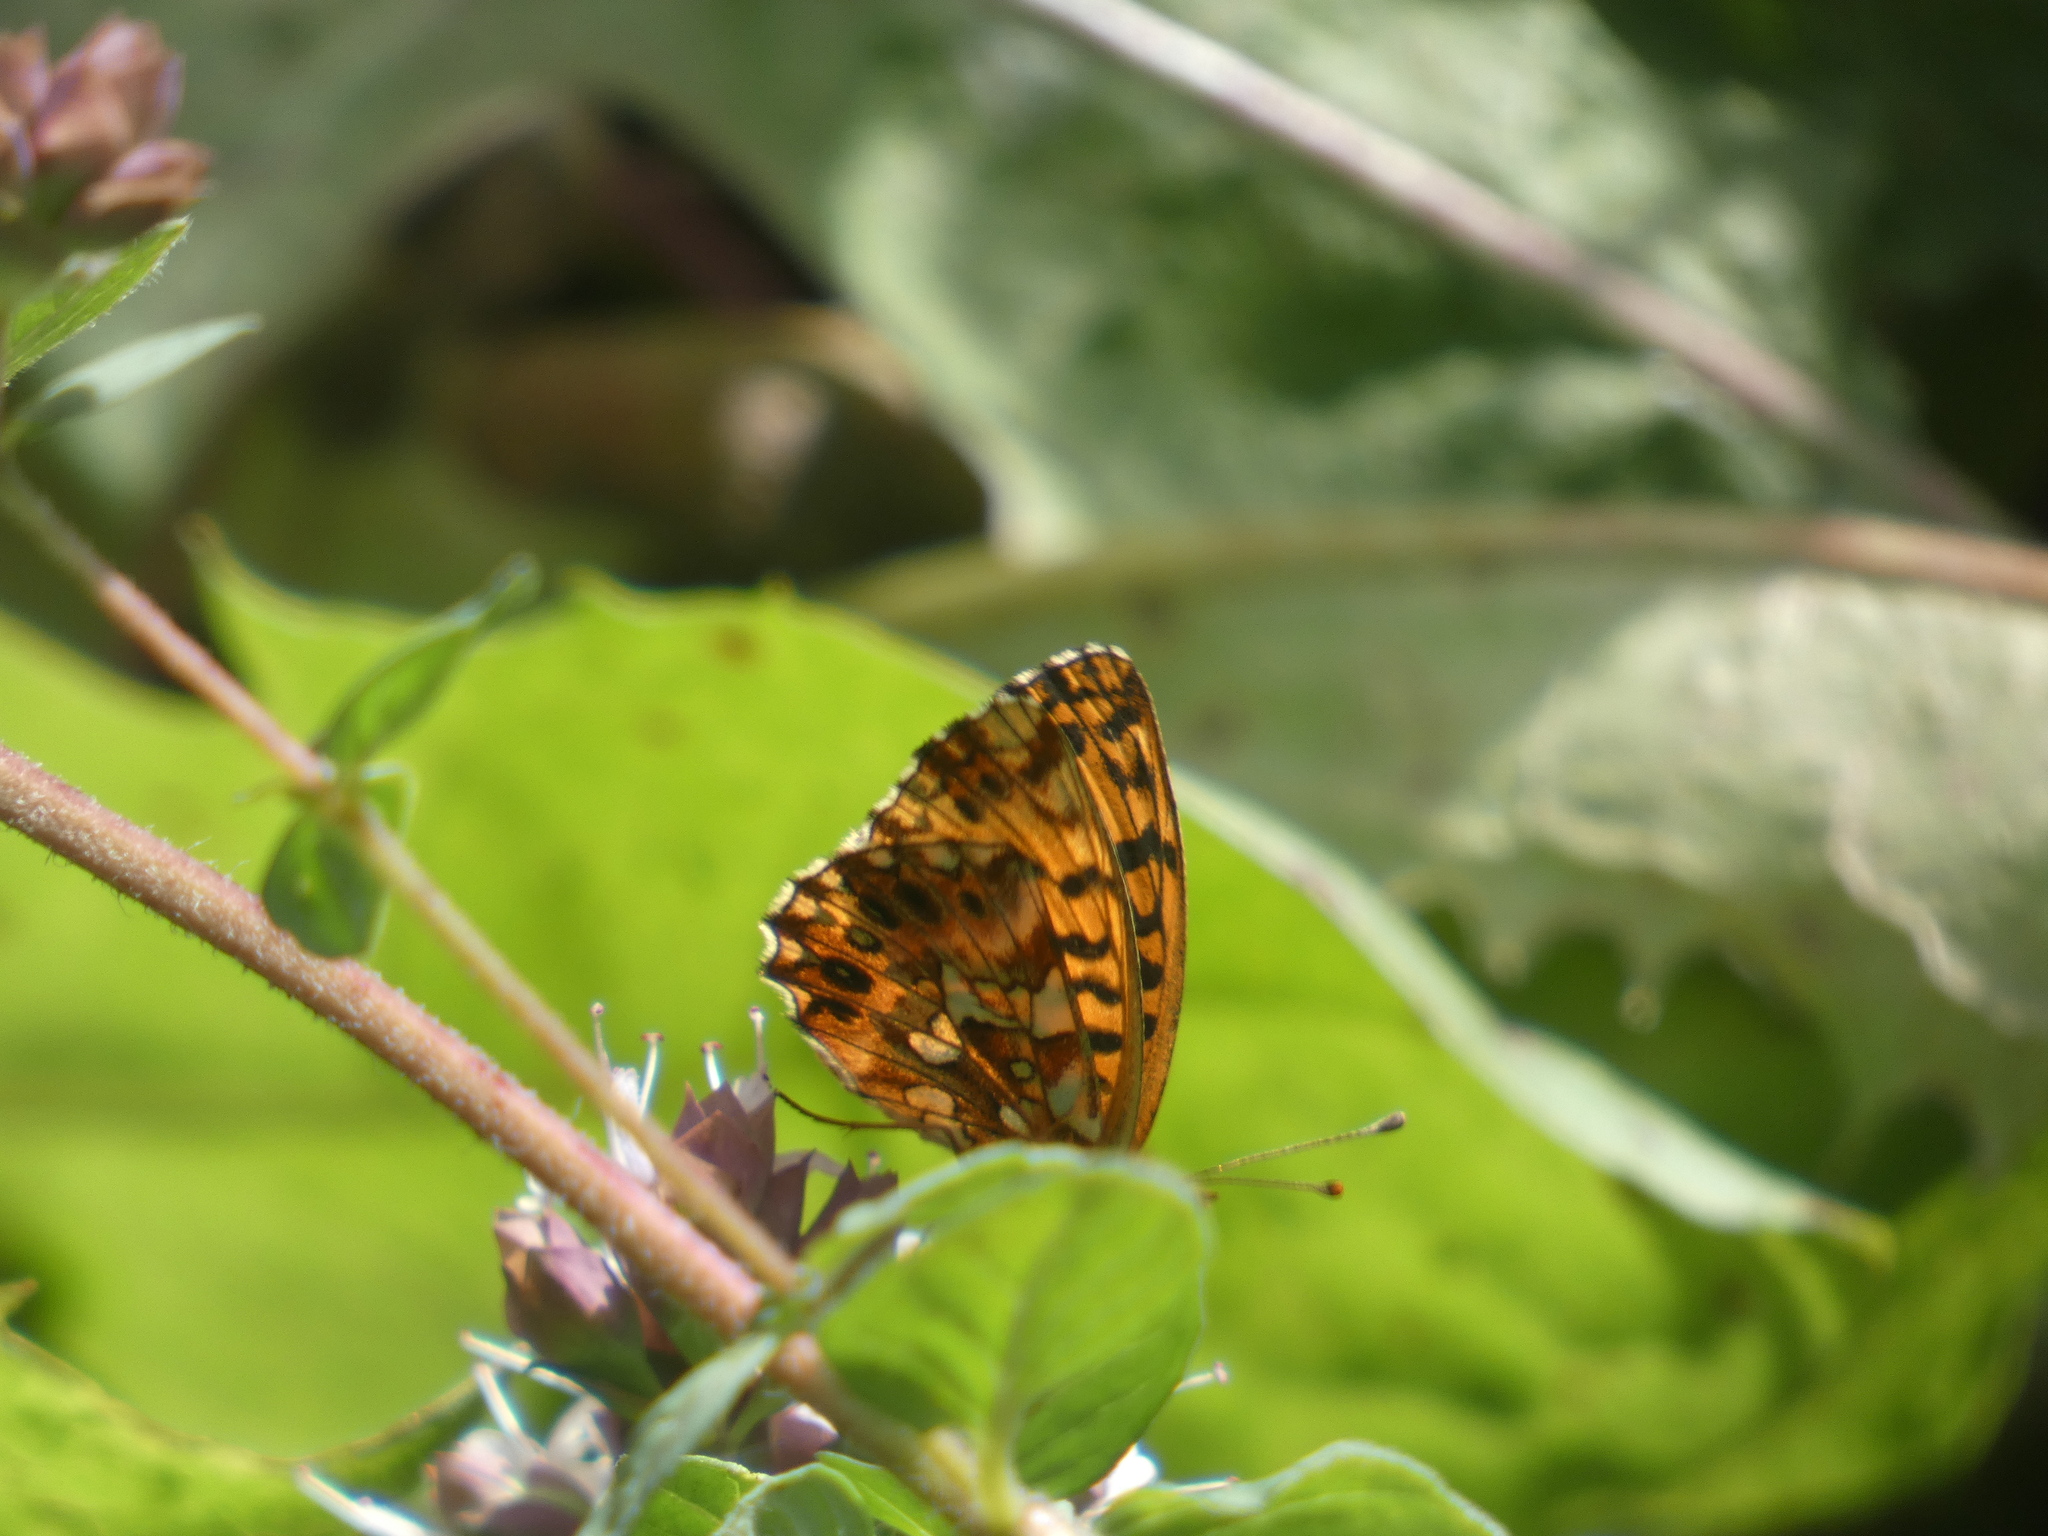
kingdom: Animalia
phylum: Arthropoda
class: Insecta
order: Lepidoptera
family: Nymphalidae
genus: Boloria
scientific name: Boloria dia
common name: Weaver's fritillary
